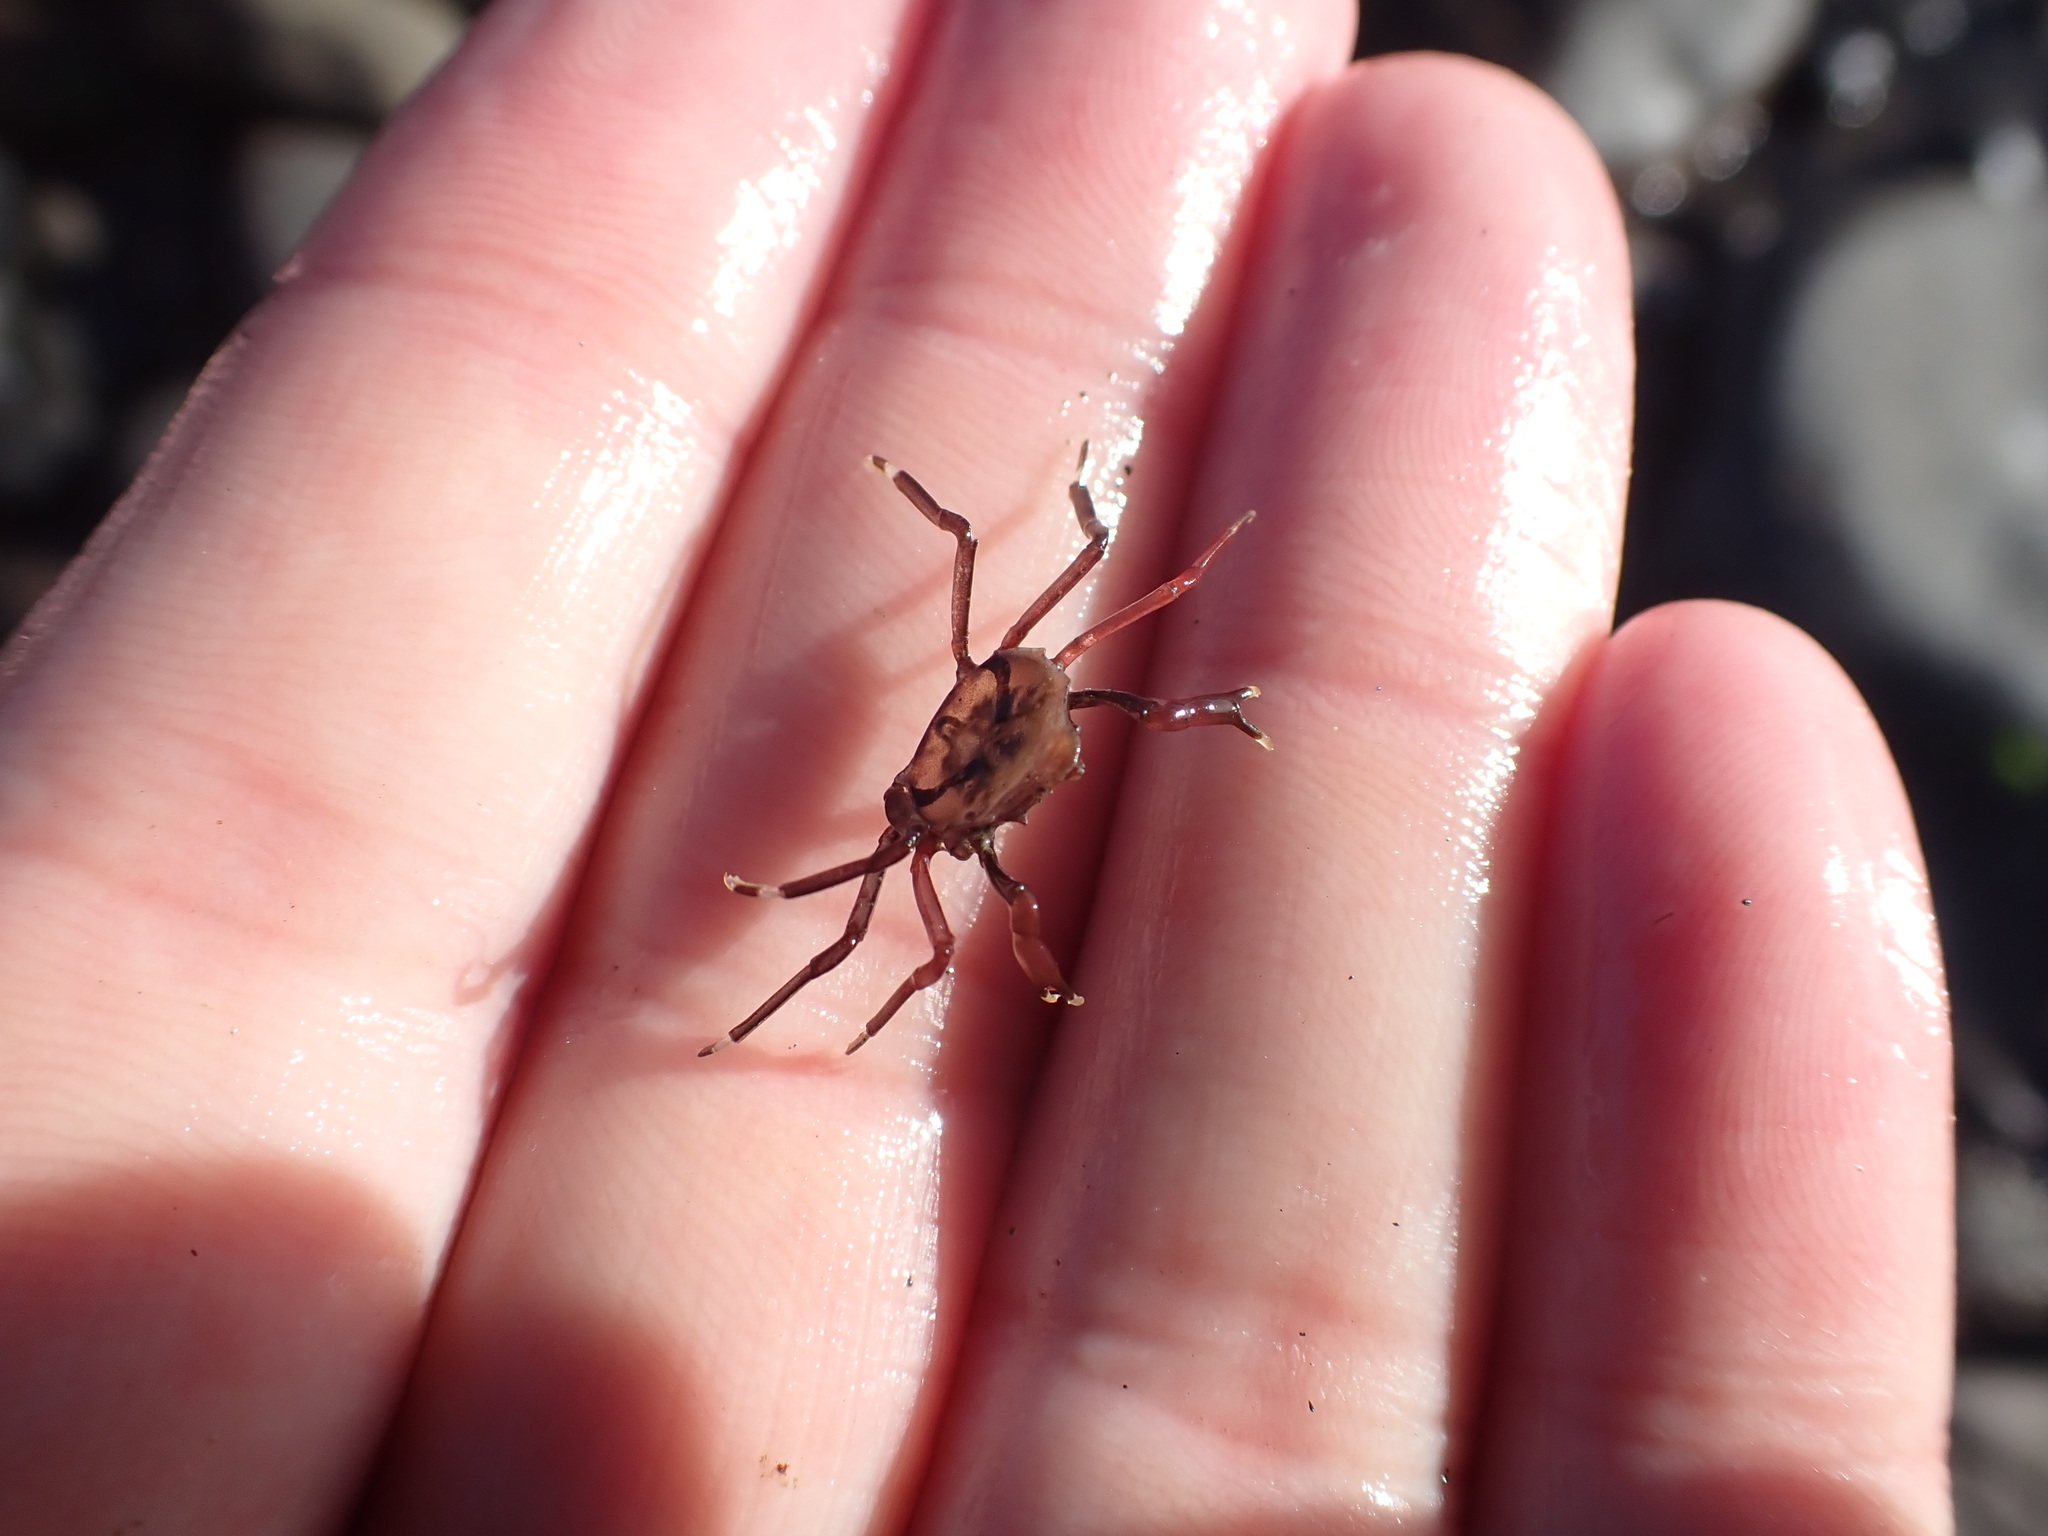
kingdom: Animalia
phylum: Arthropoda
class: Malacostraca
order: Decapoda
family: Hymenosomatidae
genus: Elamena
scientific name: Elamena producta
